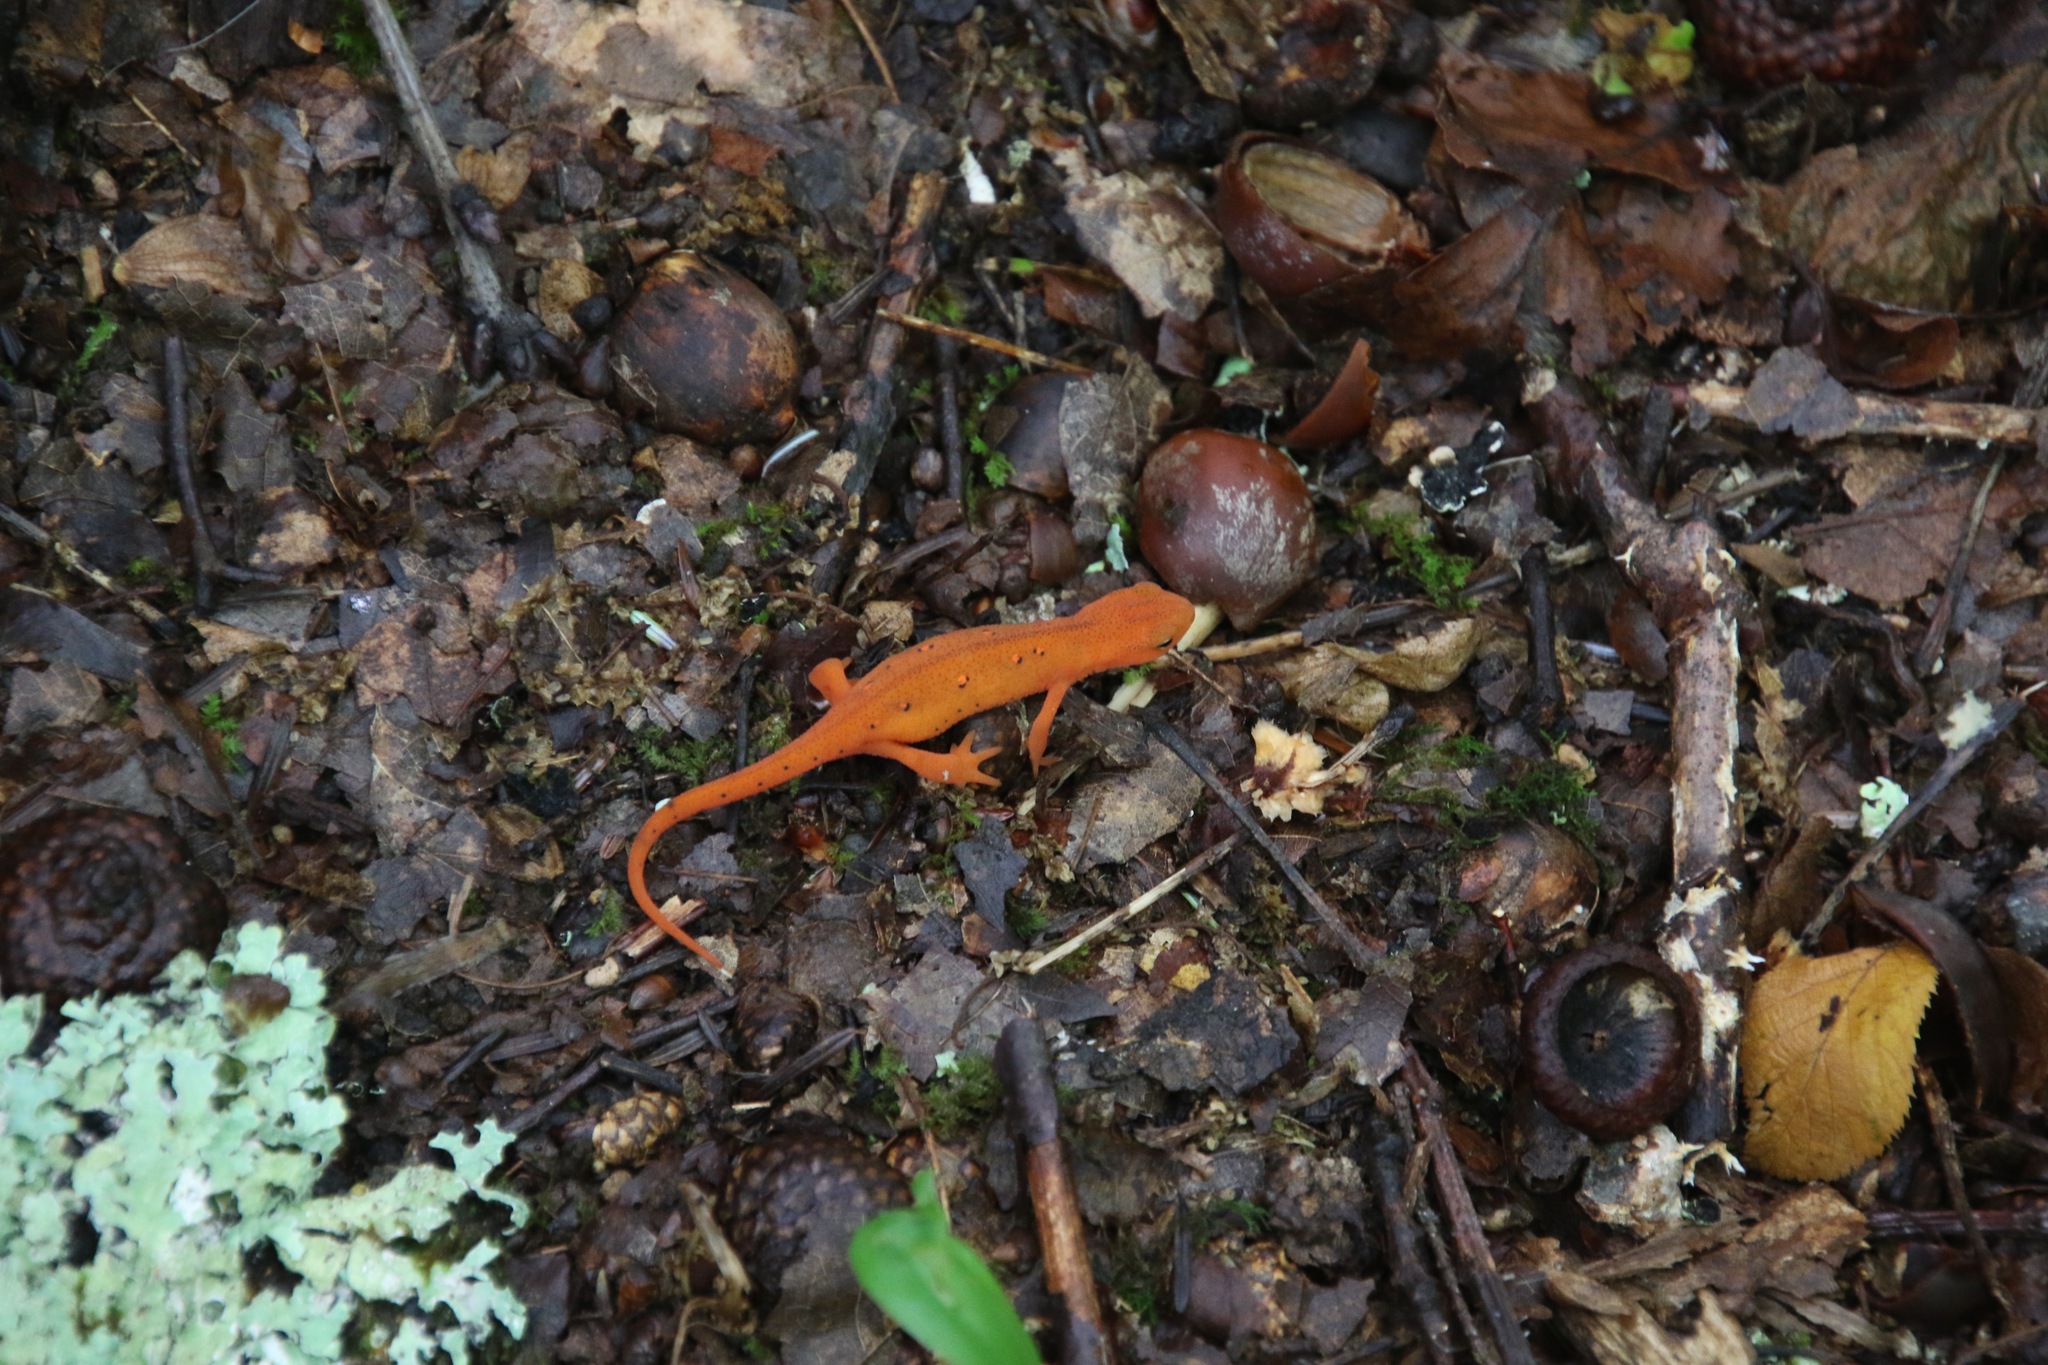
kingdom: Animalia
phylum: Chordata
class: Amphibia
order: Caudata
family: Salamandridae
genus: Notophthalmus
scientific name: Notophthalmus viridescens
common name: Eastern newt
